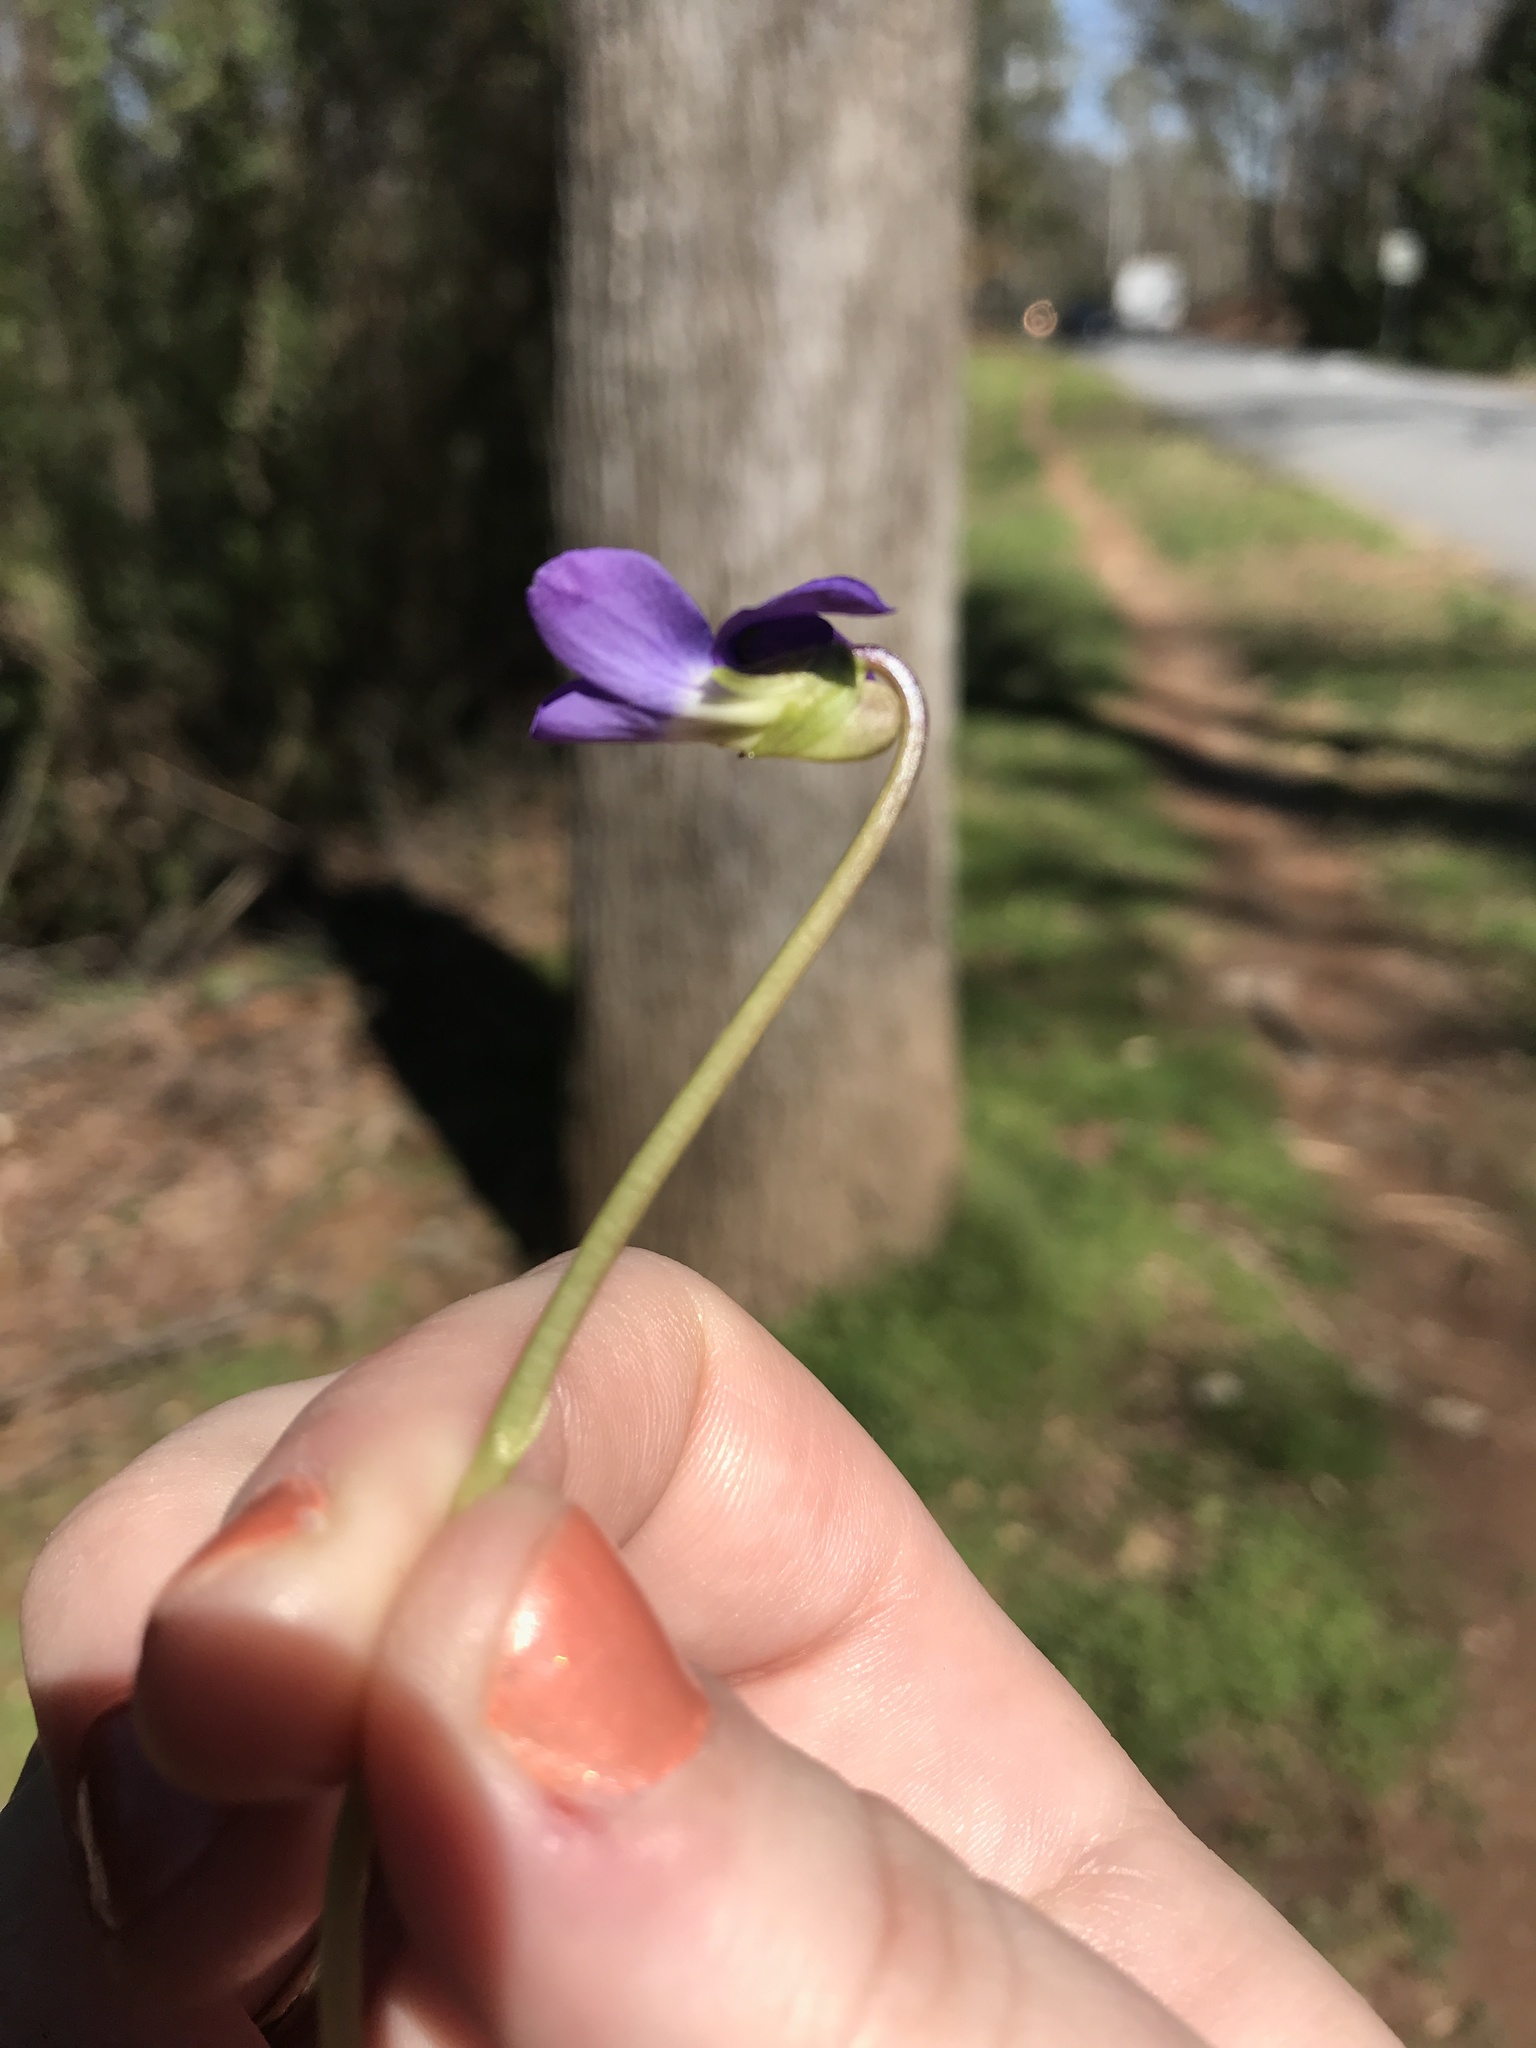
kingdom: Plantae
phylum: Tracheophyta
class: Magnoliopsida
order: Malpighiales
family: Violaceae
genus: Viola
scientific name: Viola sororia
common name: Dooryard violet
